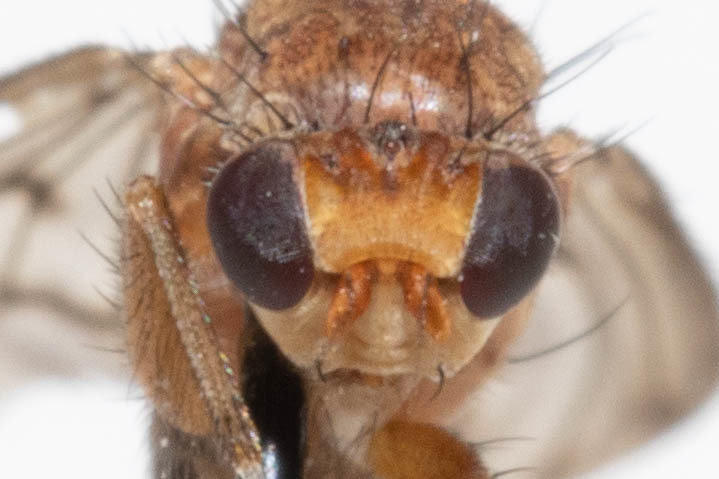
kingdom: Animalia
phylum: Arthropoda
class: Insecta
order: Diptera
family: Heleomyzidae
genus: Suillia
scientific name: Suillia nemorum
